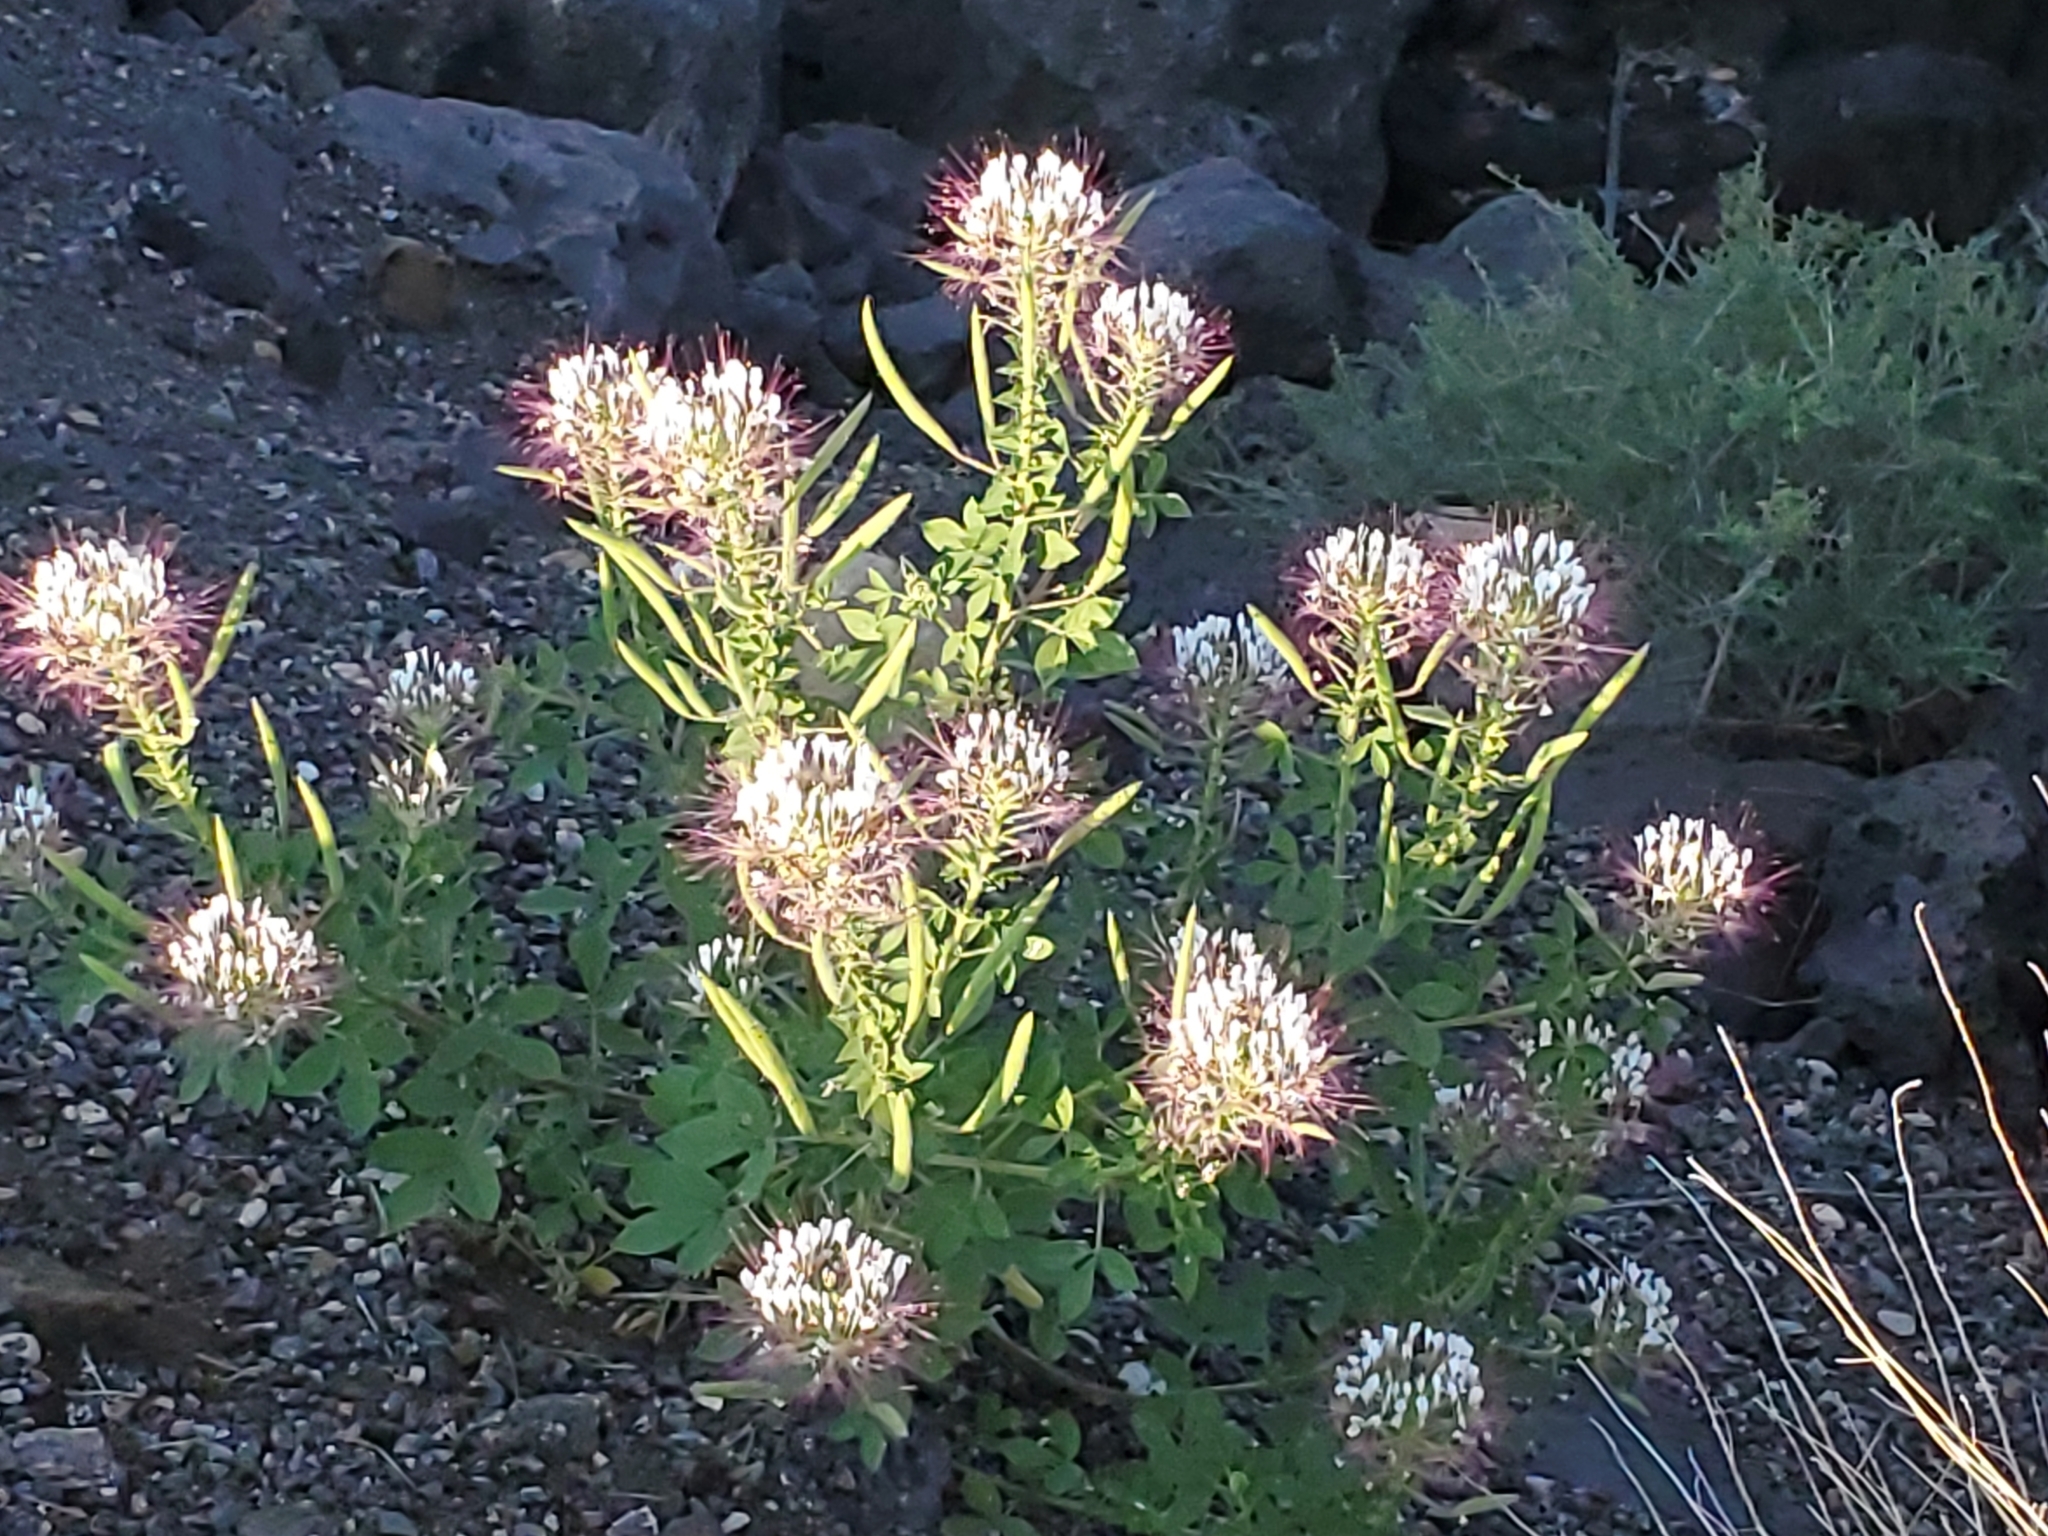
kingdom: Plantae
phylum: Tracheophyta
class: Magnoliopsida
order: Brassicales
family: Cleomaceae
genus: Polanisia
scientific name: Polanisia dodecandra
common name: Clammyweed
